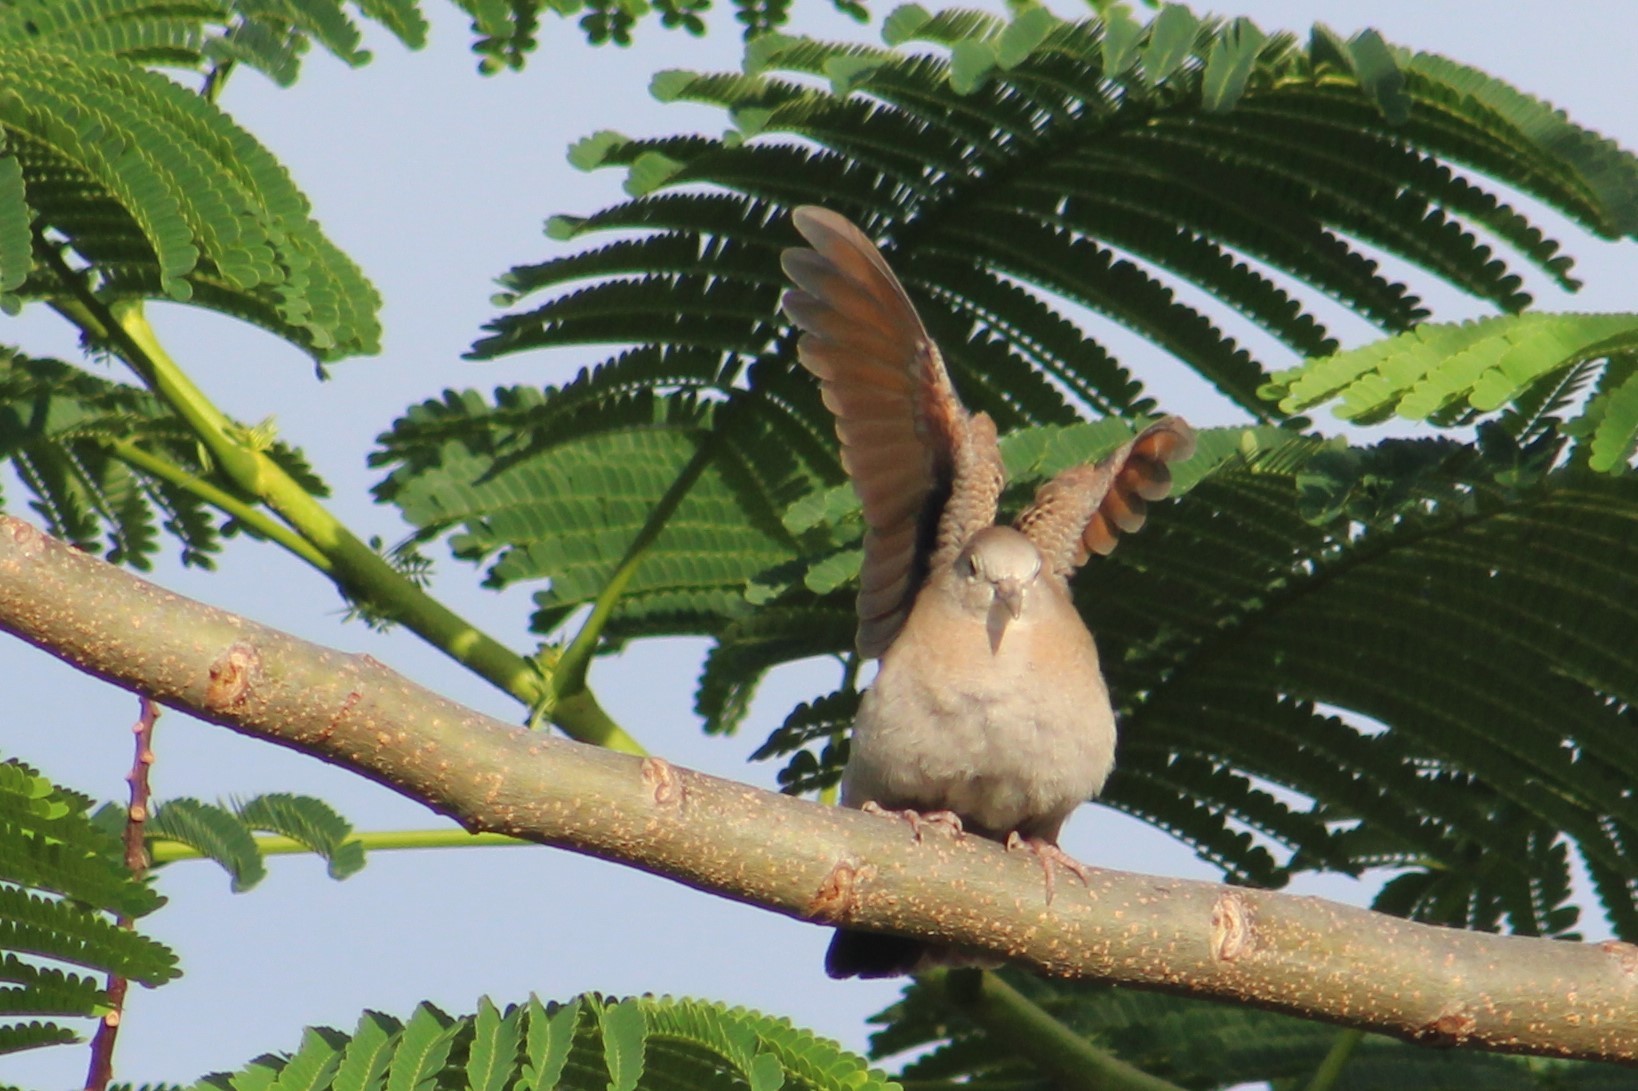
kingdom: Animalia
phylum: Chordata
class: Aves
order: Columbiformes
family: Columbidae
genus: Columbina
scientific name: Columbina talpacoti
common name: Ruddy ground dove
